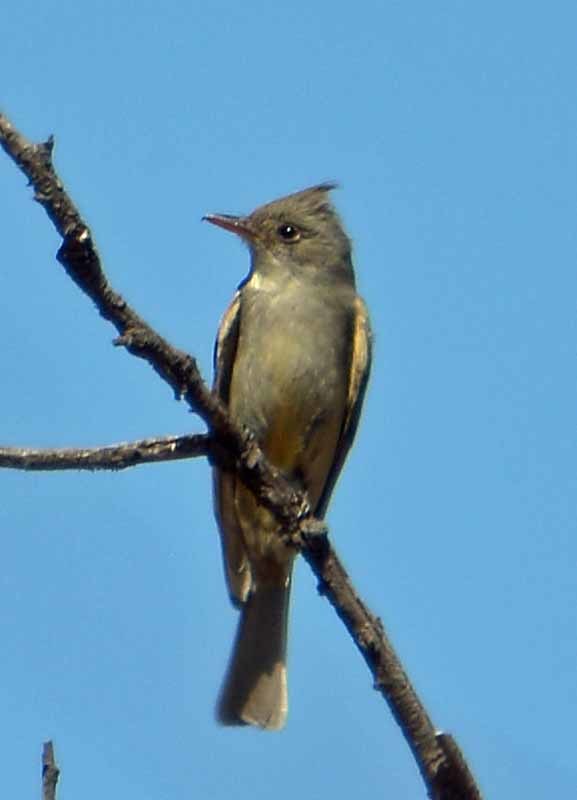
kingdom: Animalia
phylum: Chordata
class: Aves
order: Passeriformes
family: Tyrannidae
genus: Contopus
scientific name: Contopus pertinax
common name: Greater pewee
